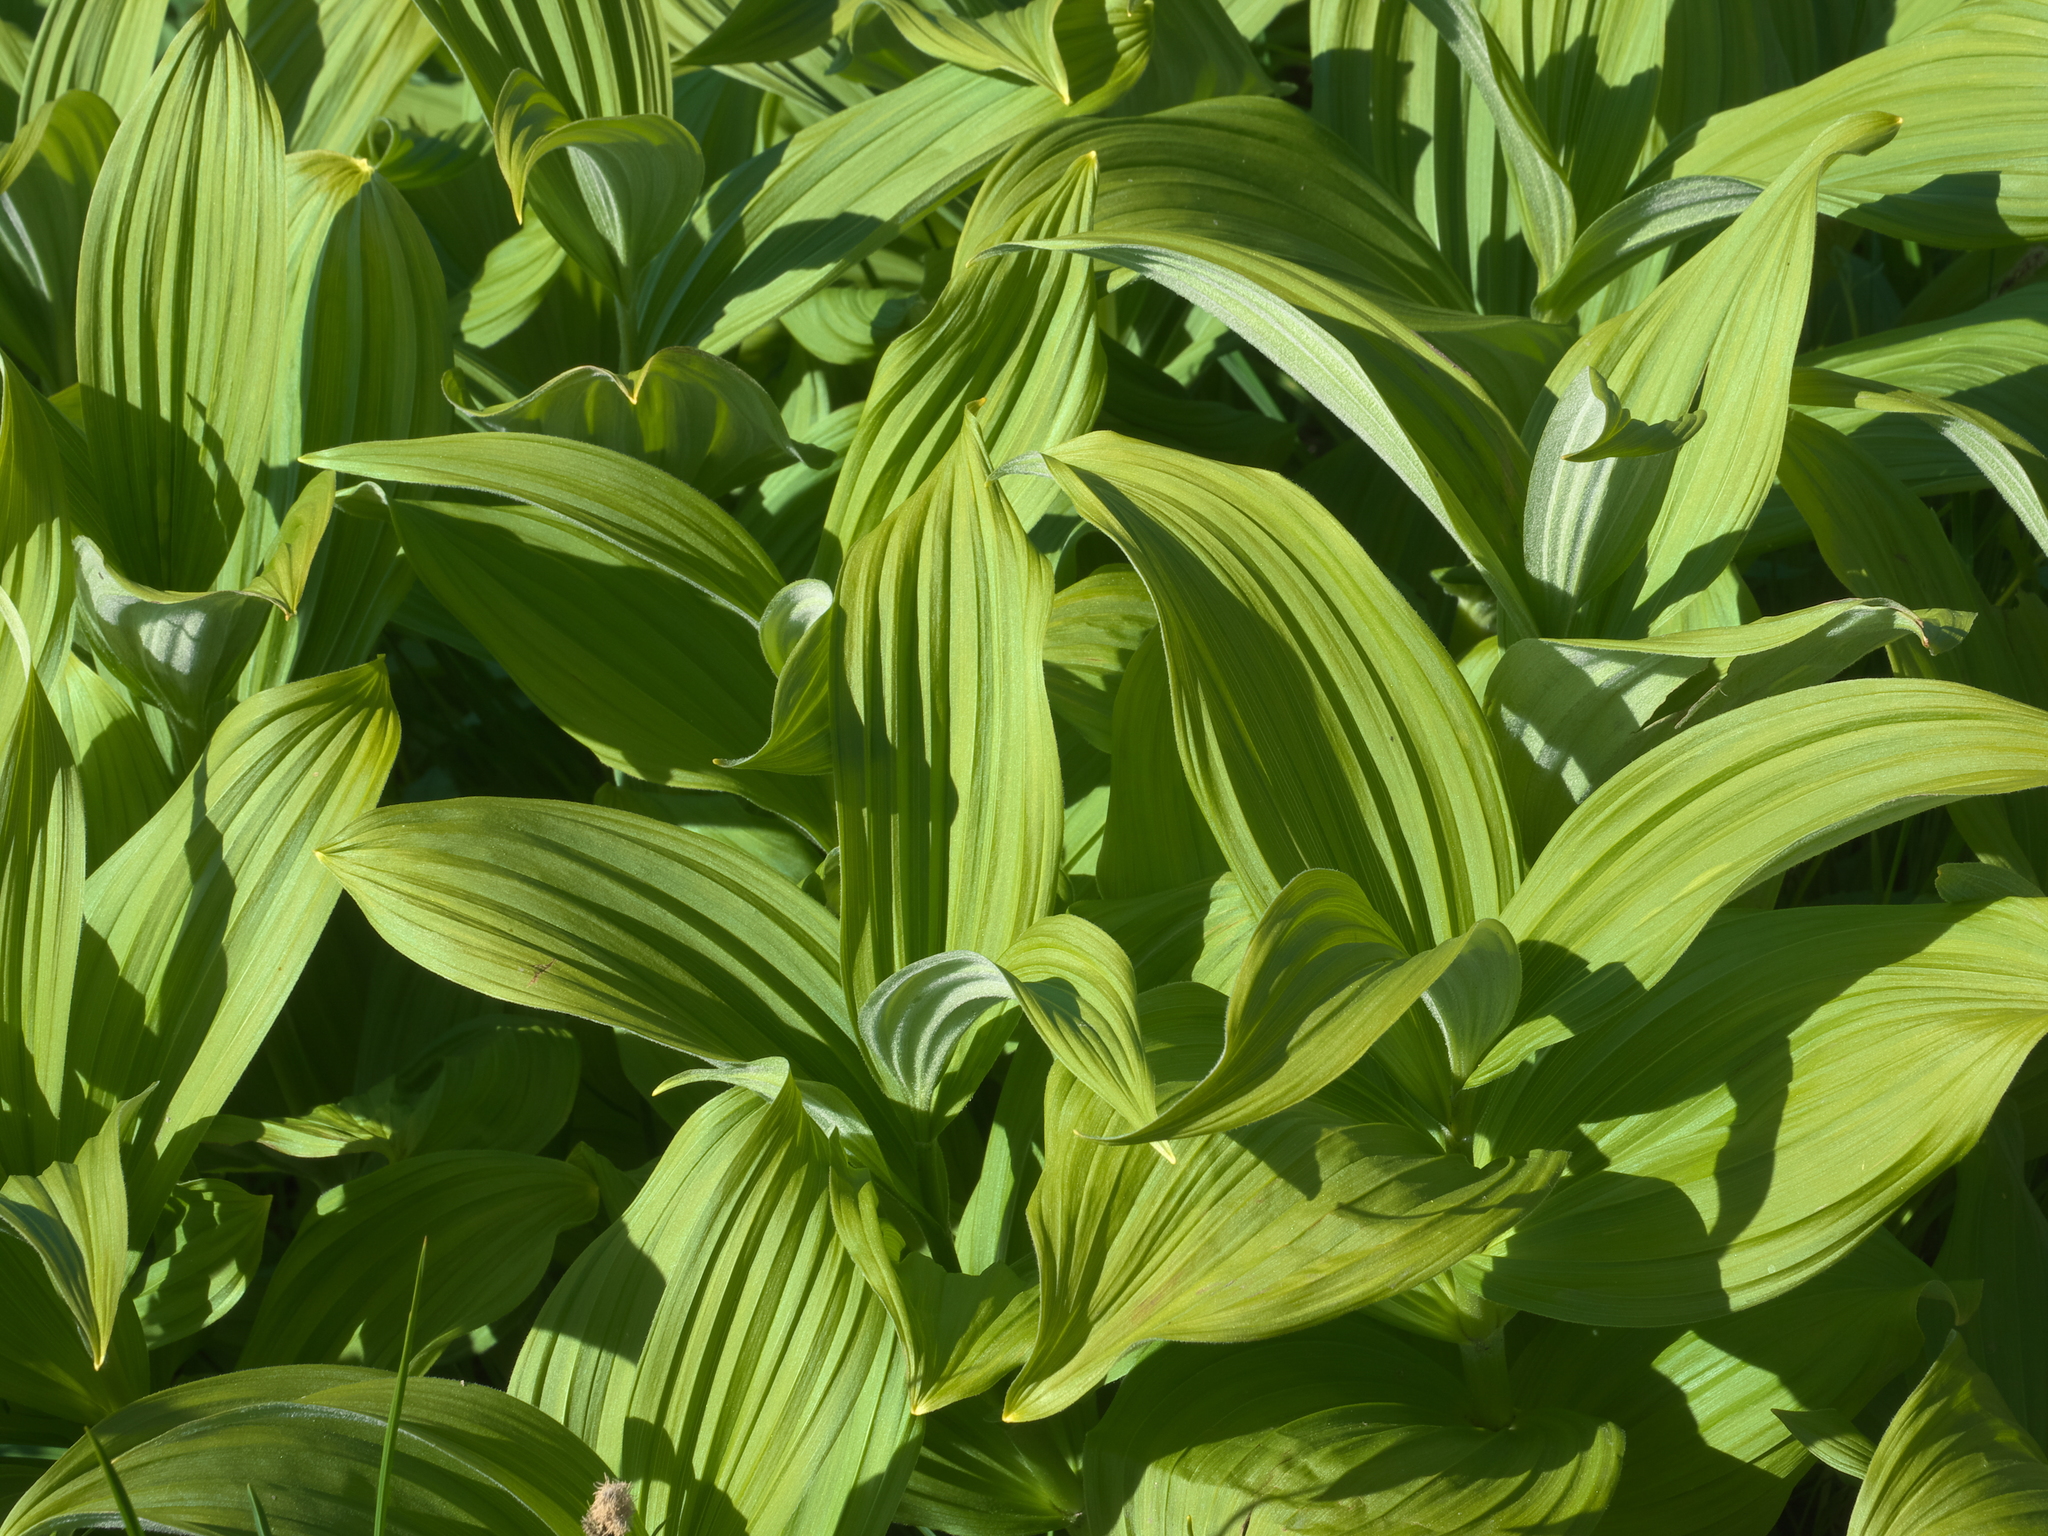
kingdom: Plantae
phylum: Tracheophyta
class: Liliopsida
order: Liliales
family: Melanthiaceae
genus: Veratrum
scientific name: Veratrum viride
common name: American false hellebore
